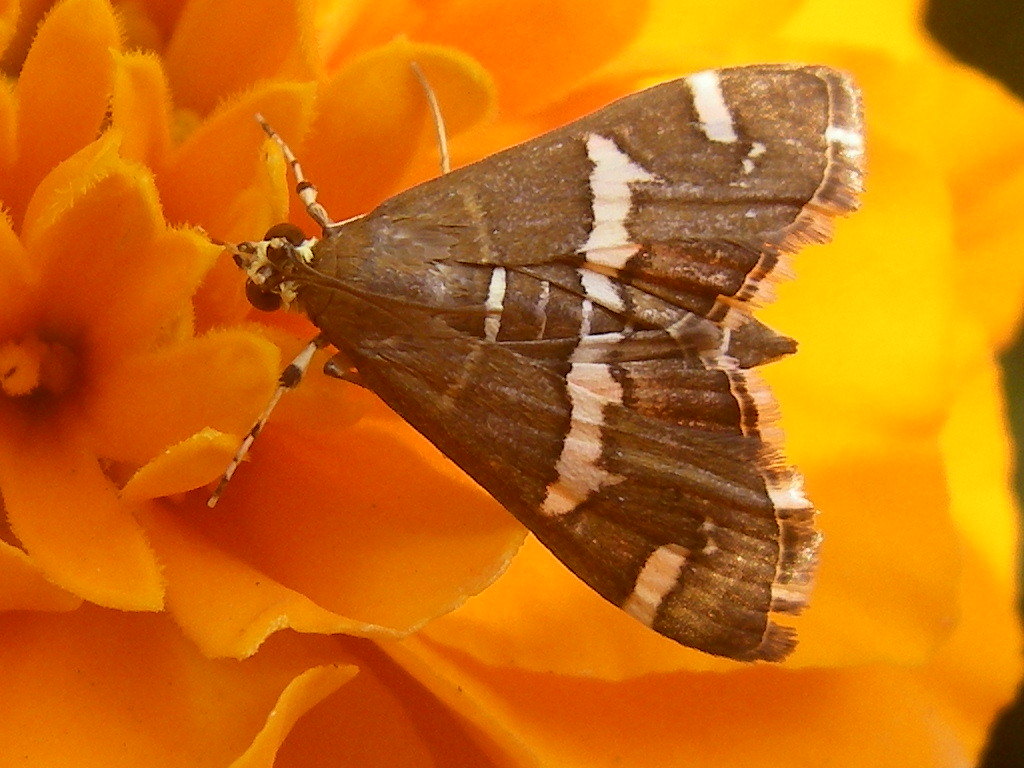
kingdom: Animalia
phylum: Arthropoda
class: Insecta
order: Lepidoptera
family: Crambidae
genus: Spoladea
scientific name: Spoladea recurvalis
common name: Beet webworm moth
